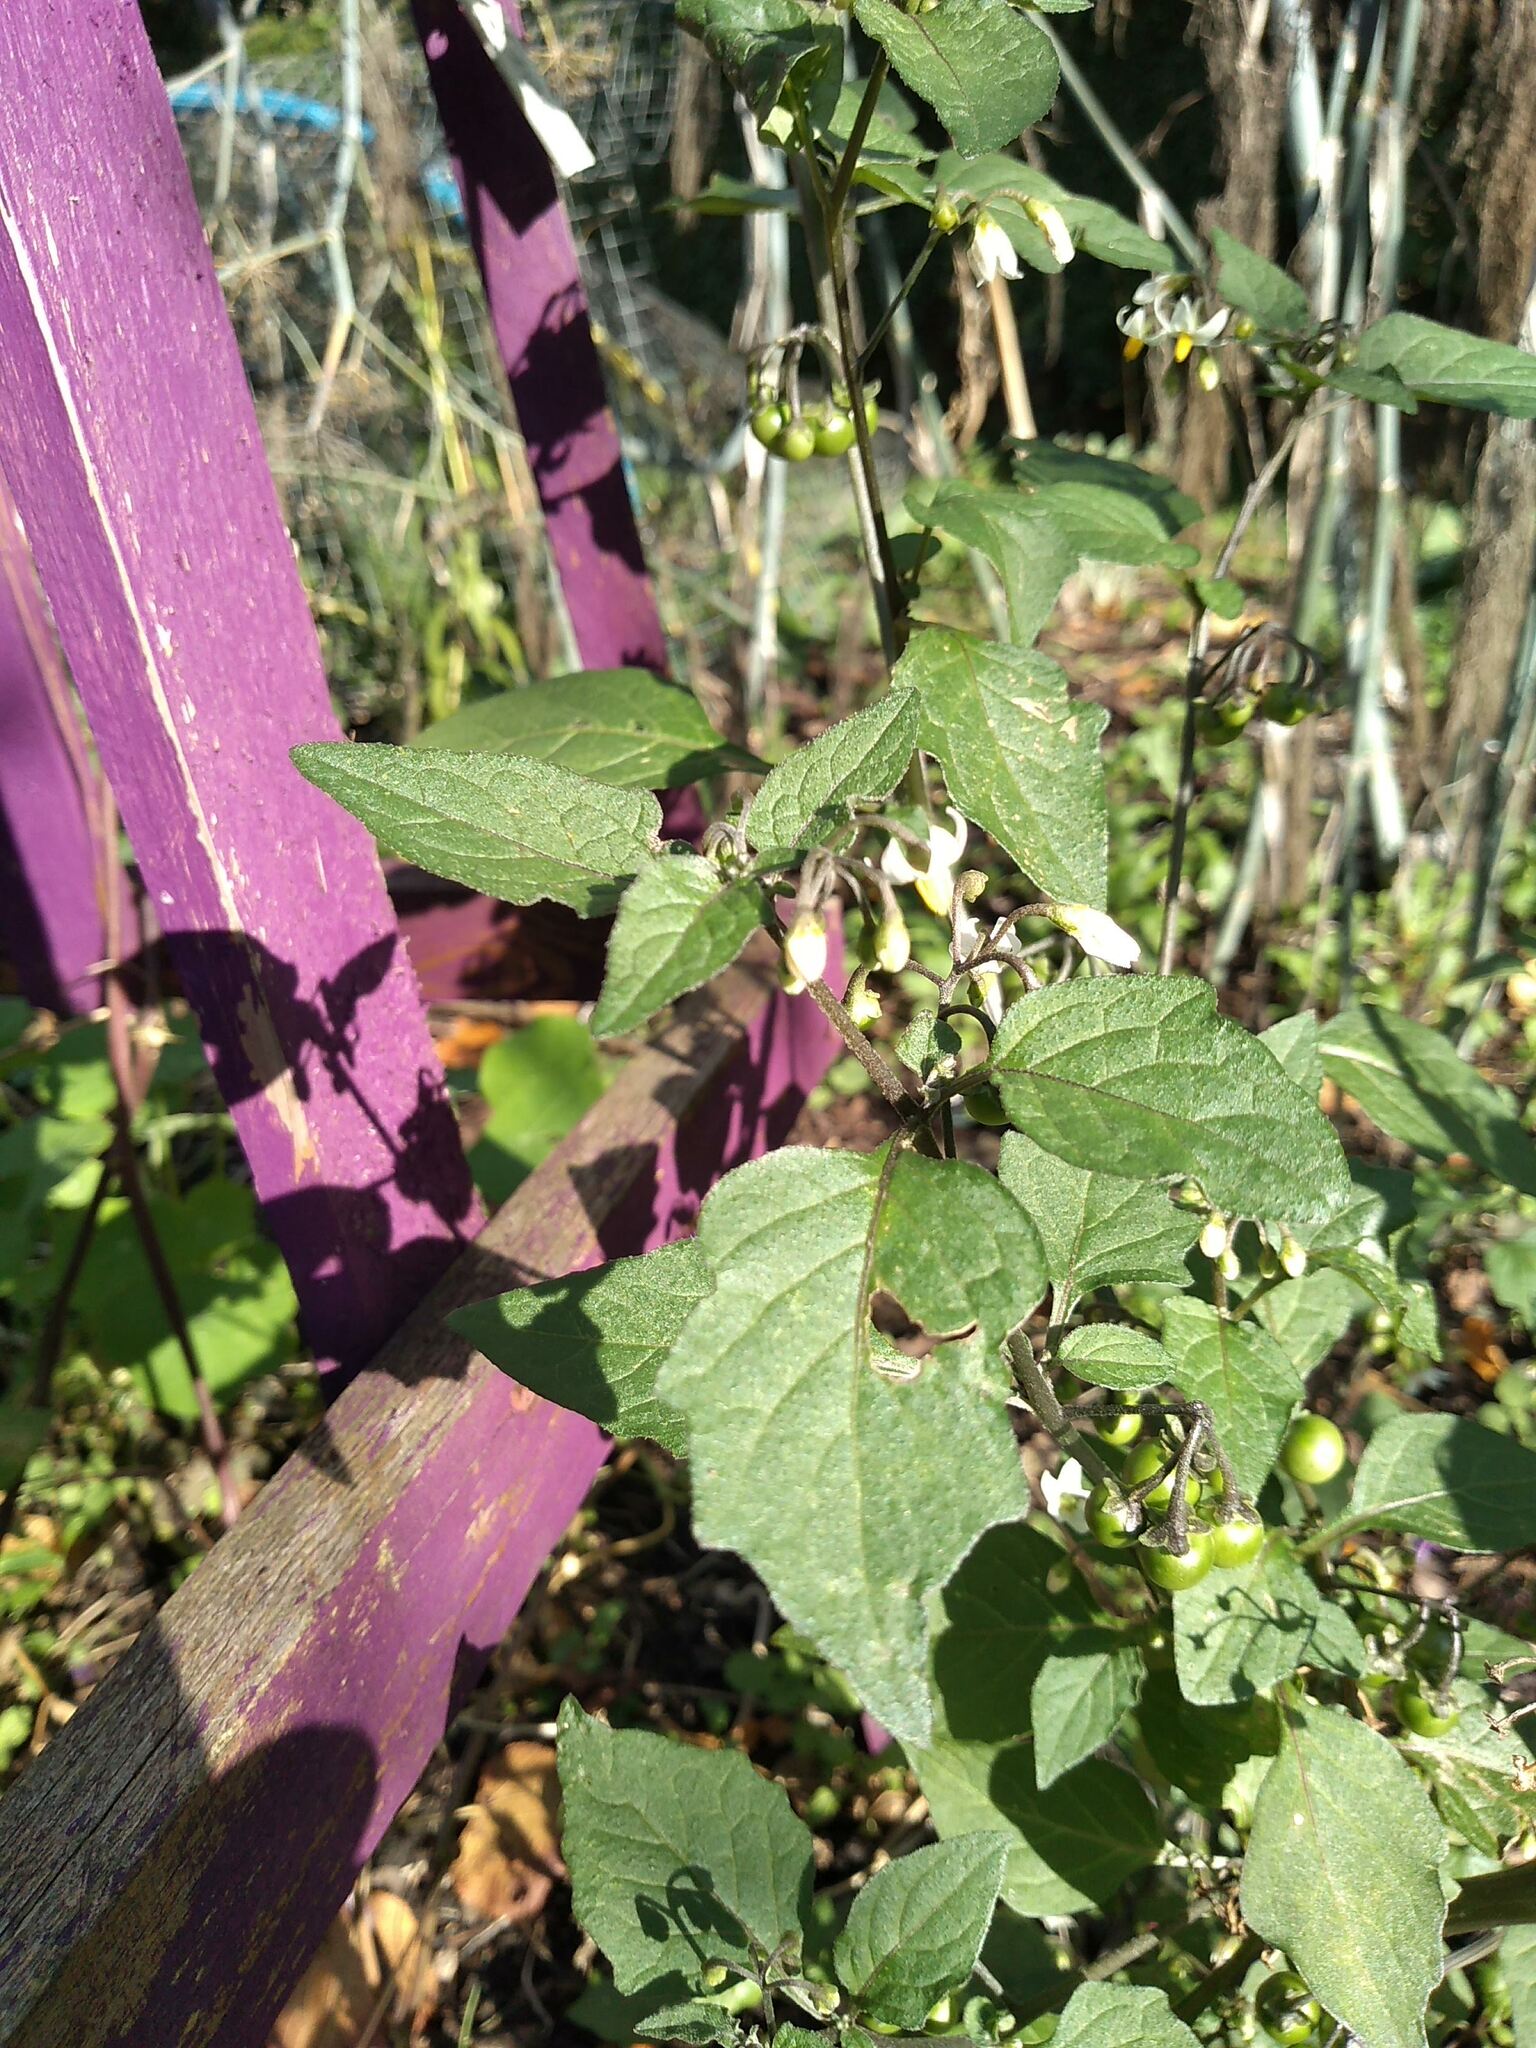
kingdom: Plantae
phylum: Tracheophyta
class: Magnoliopsida
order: Solanales
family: Solanaceae
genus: Solanum
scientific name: Solanum nigrum
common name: Black nightshade
